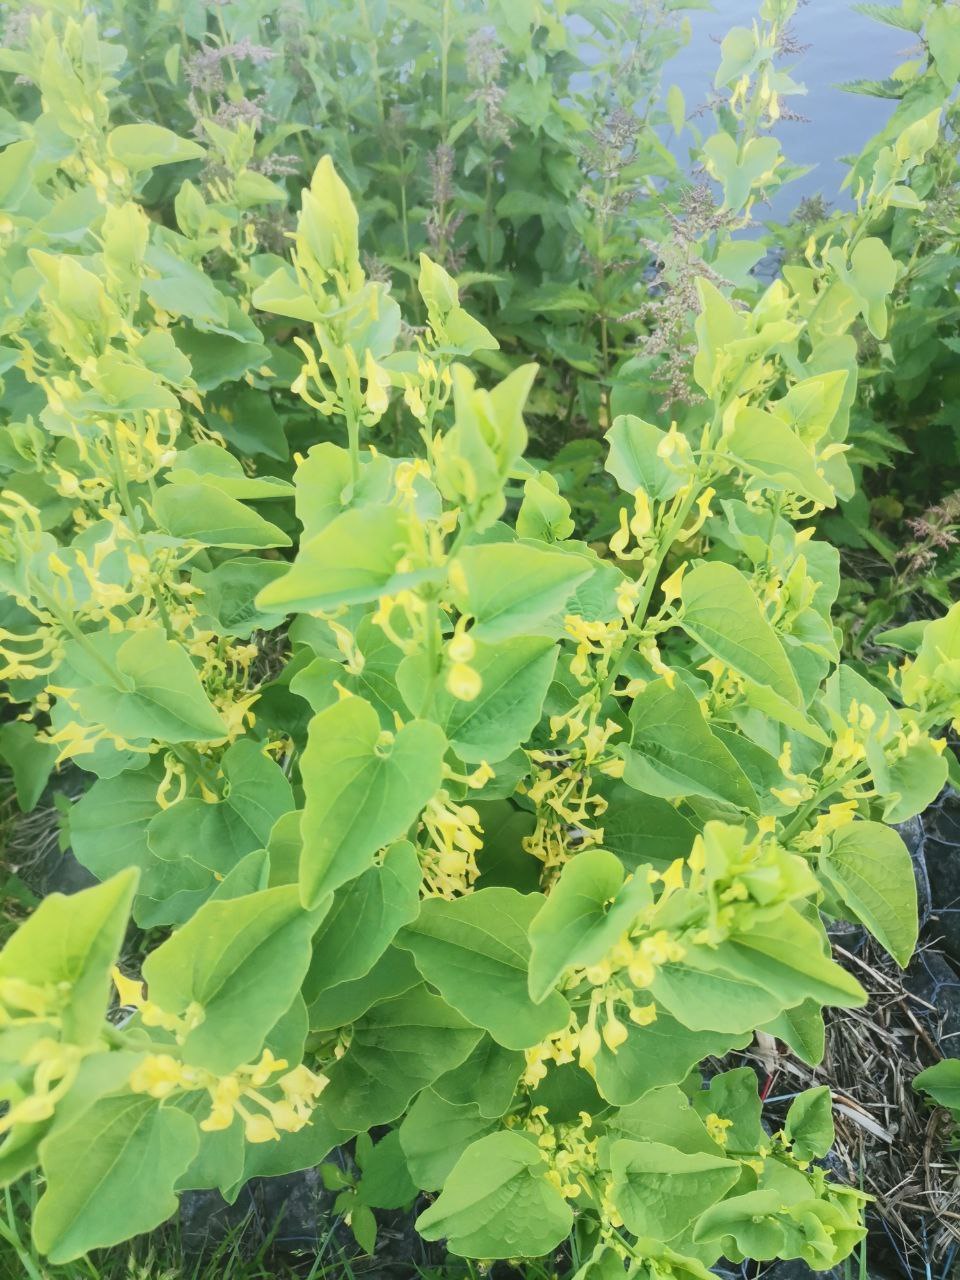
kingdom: Plantae
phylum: Tracheophyta
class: Magnoliopsida
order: Piperales
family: Aristolochiaceae
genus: Aristolochia
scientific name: Aristolochia clematitis
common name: Birthwort
